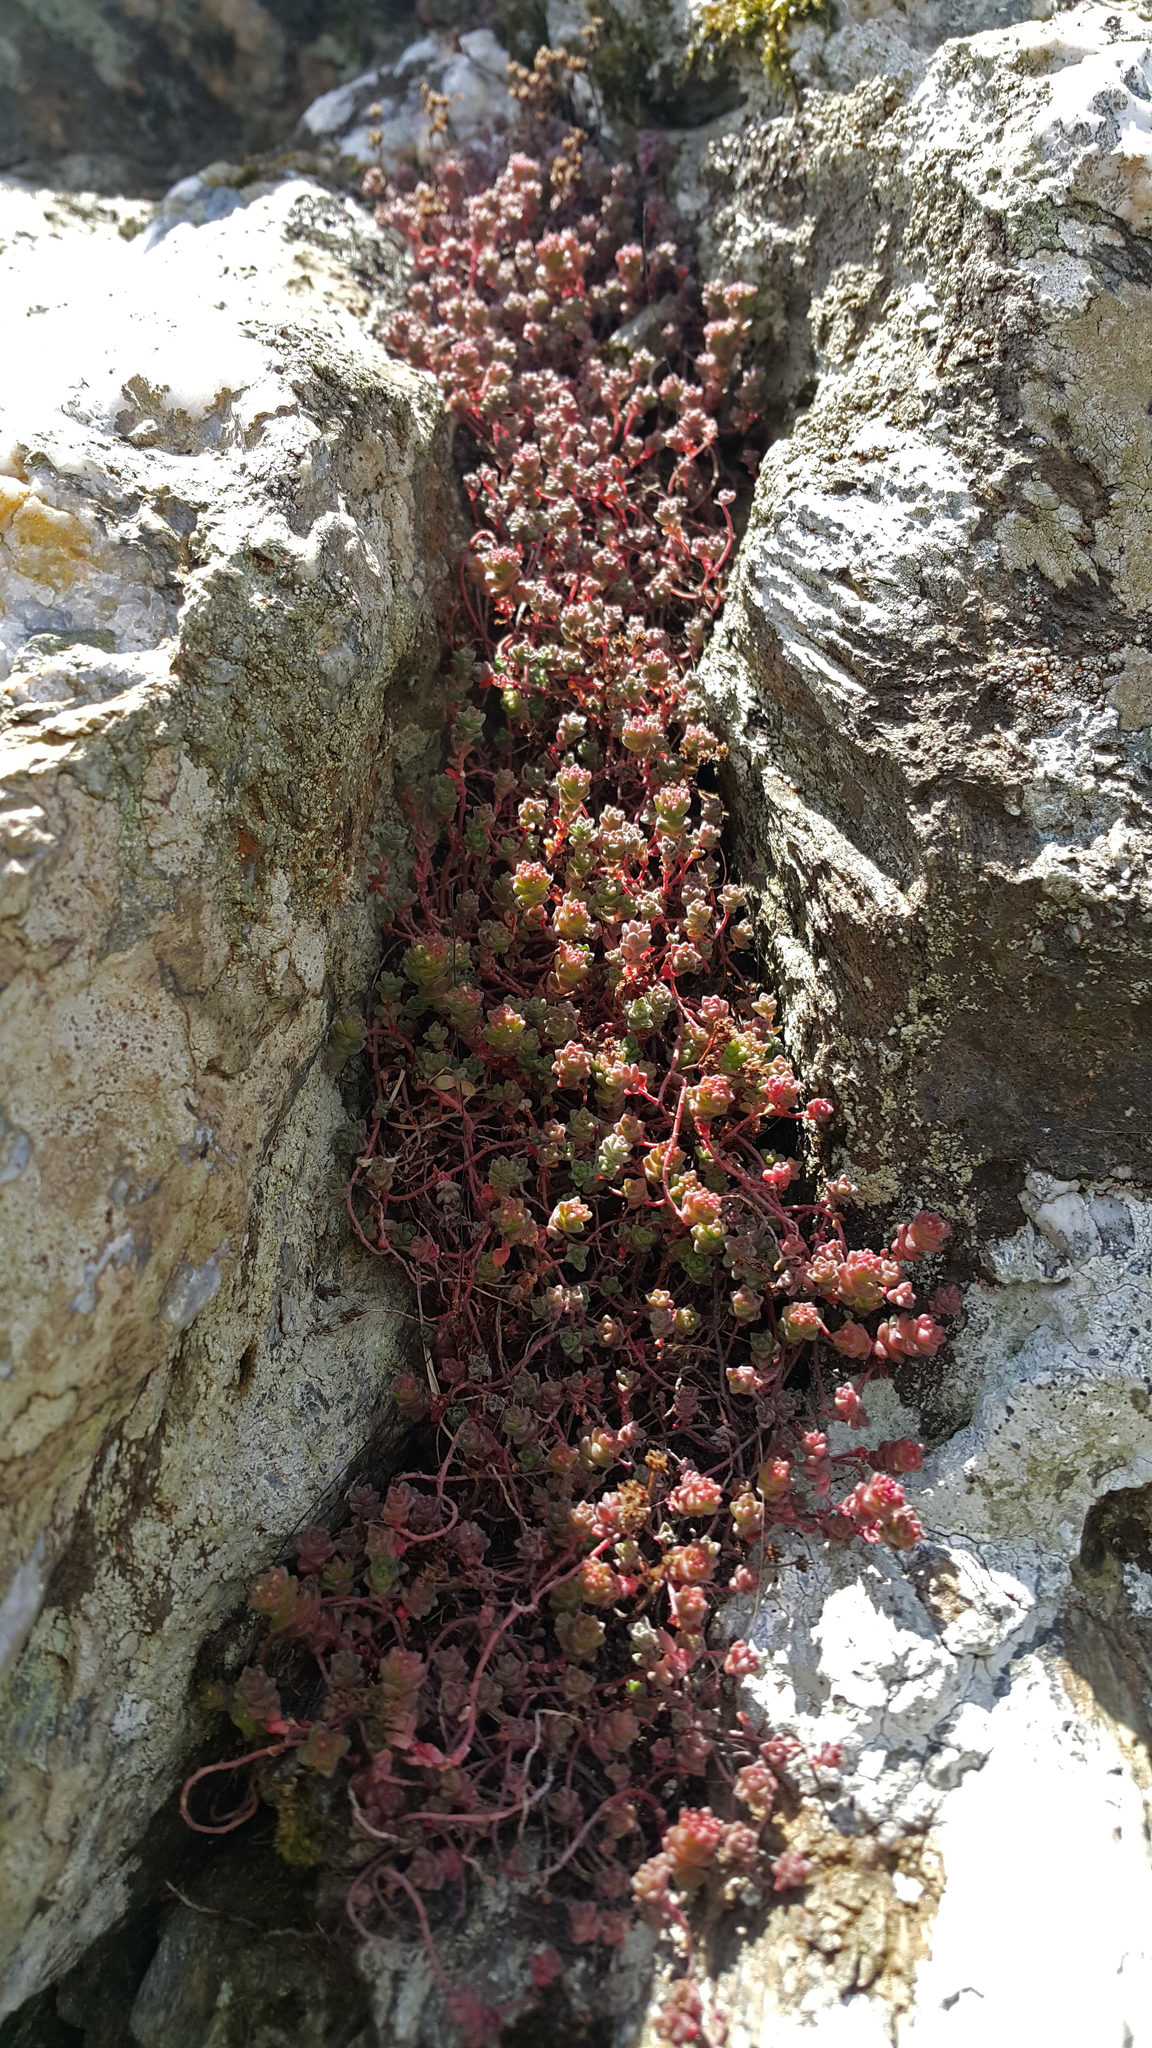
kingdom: Plantae
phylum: Tracheophyta
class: Magnoliopsida
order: Saxifragales
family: Crassulaceae
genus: Sedum
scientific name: Sedum anglicum
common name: English stonecrop
